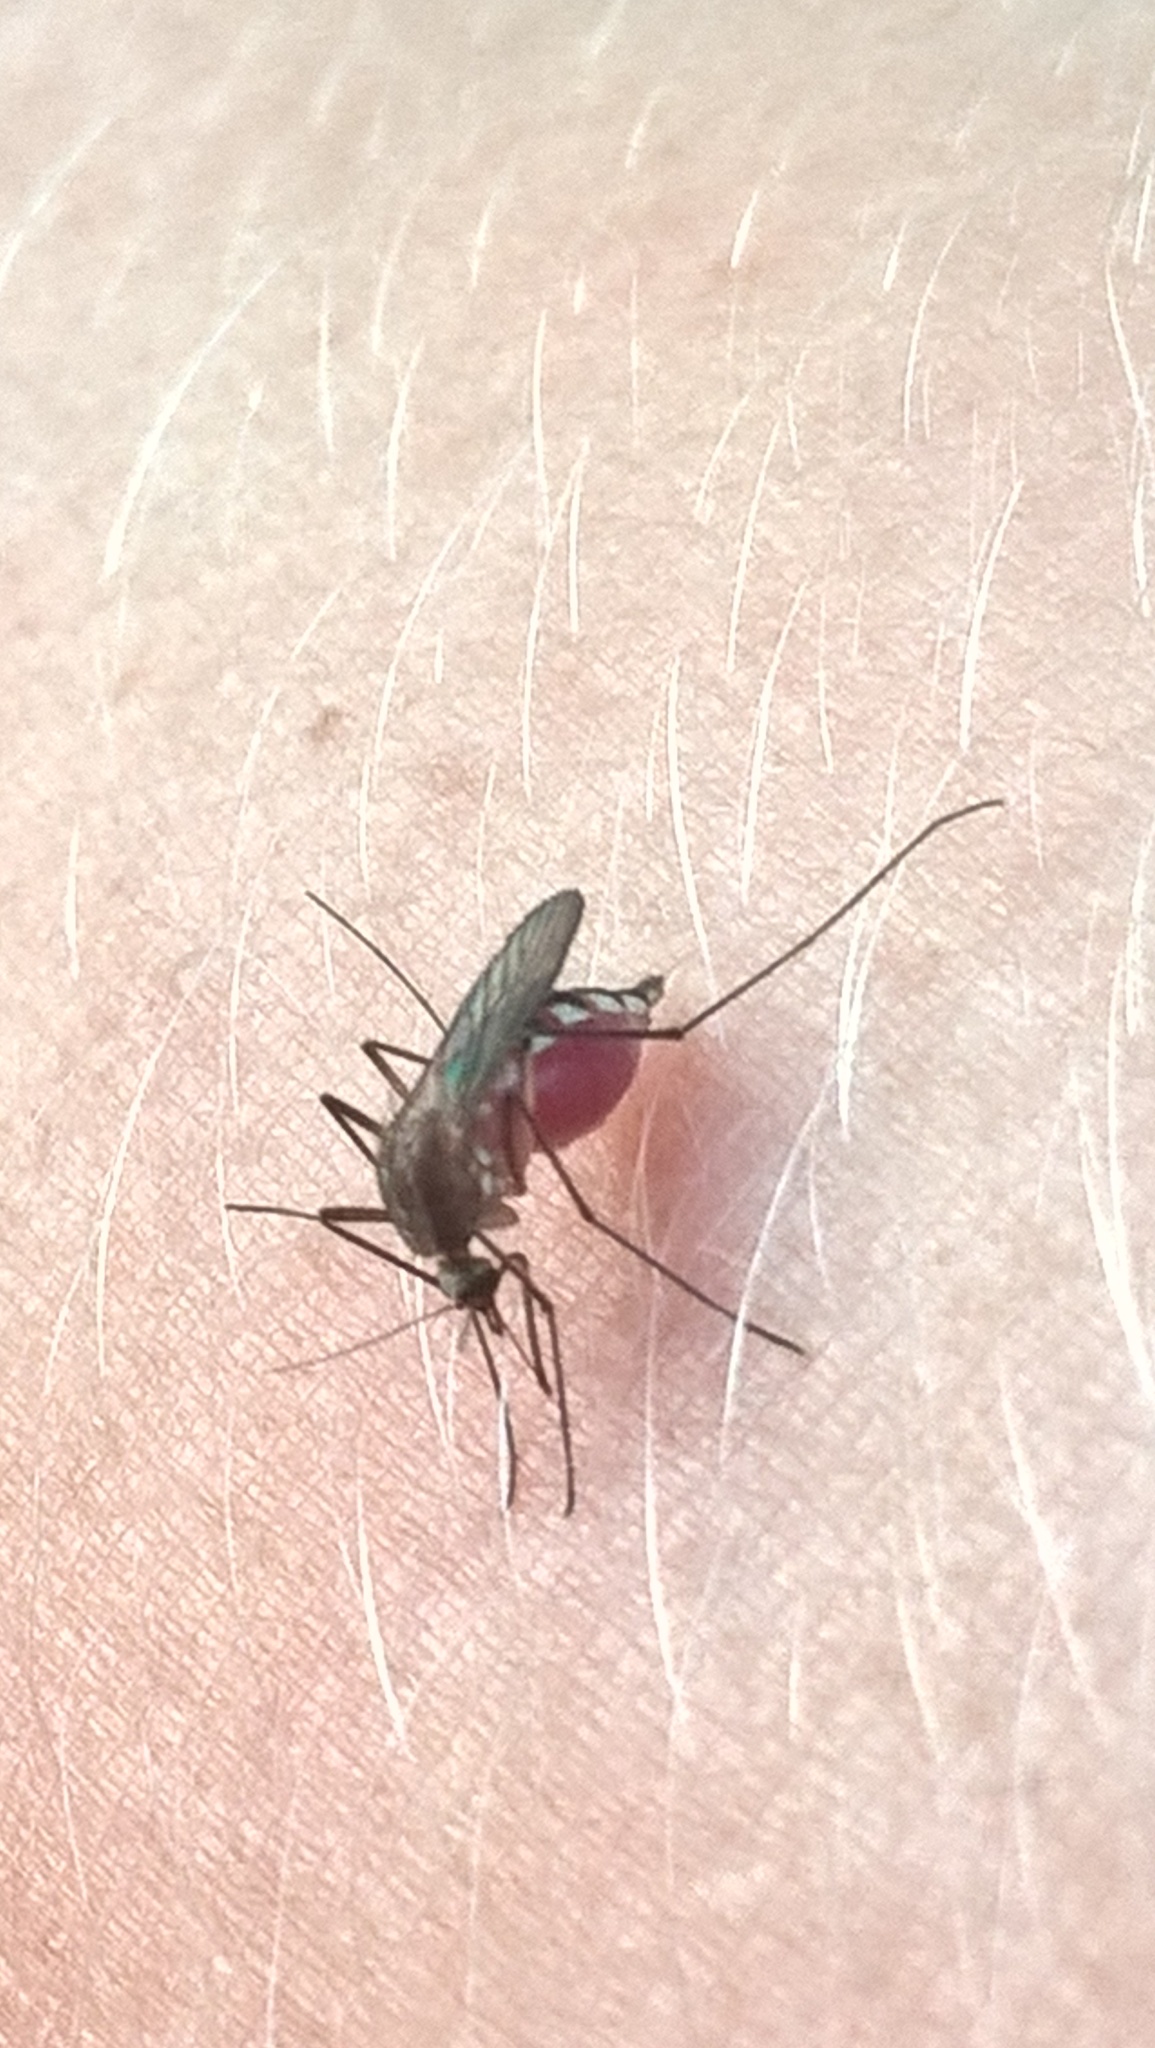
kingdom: Animalia
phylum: Arthropoda
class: Insecta
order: Diptera
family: Culicidae
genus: Aedes
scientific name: Aedes infirmatus
